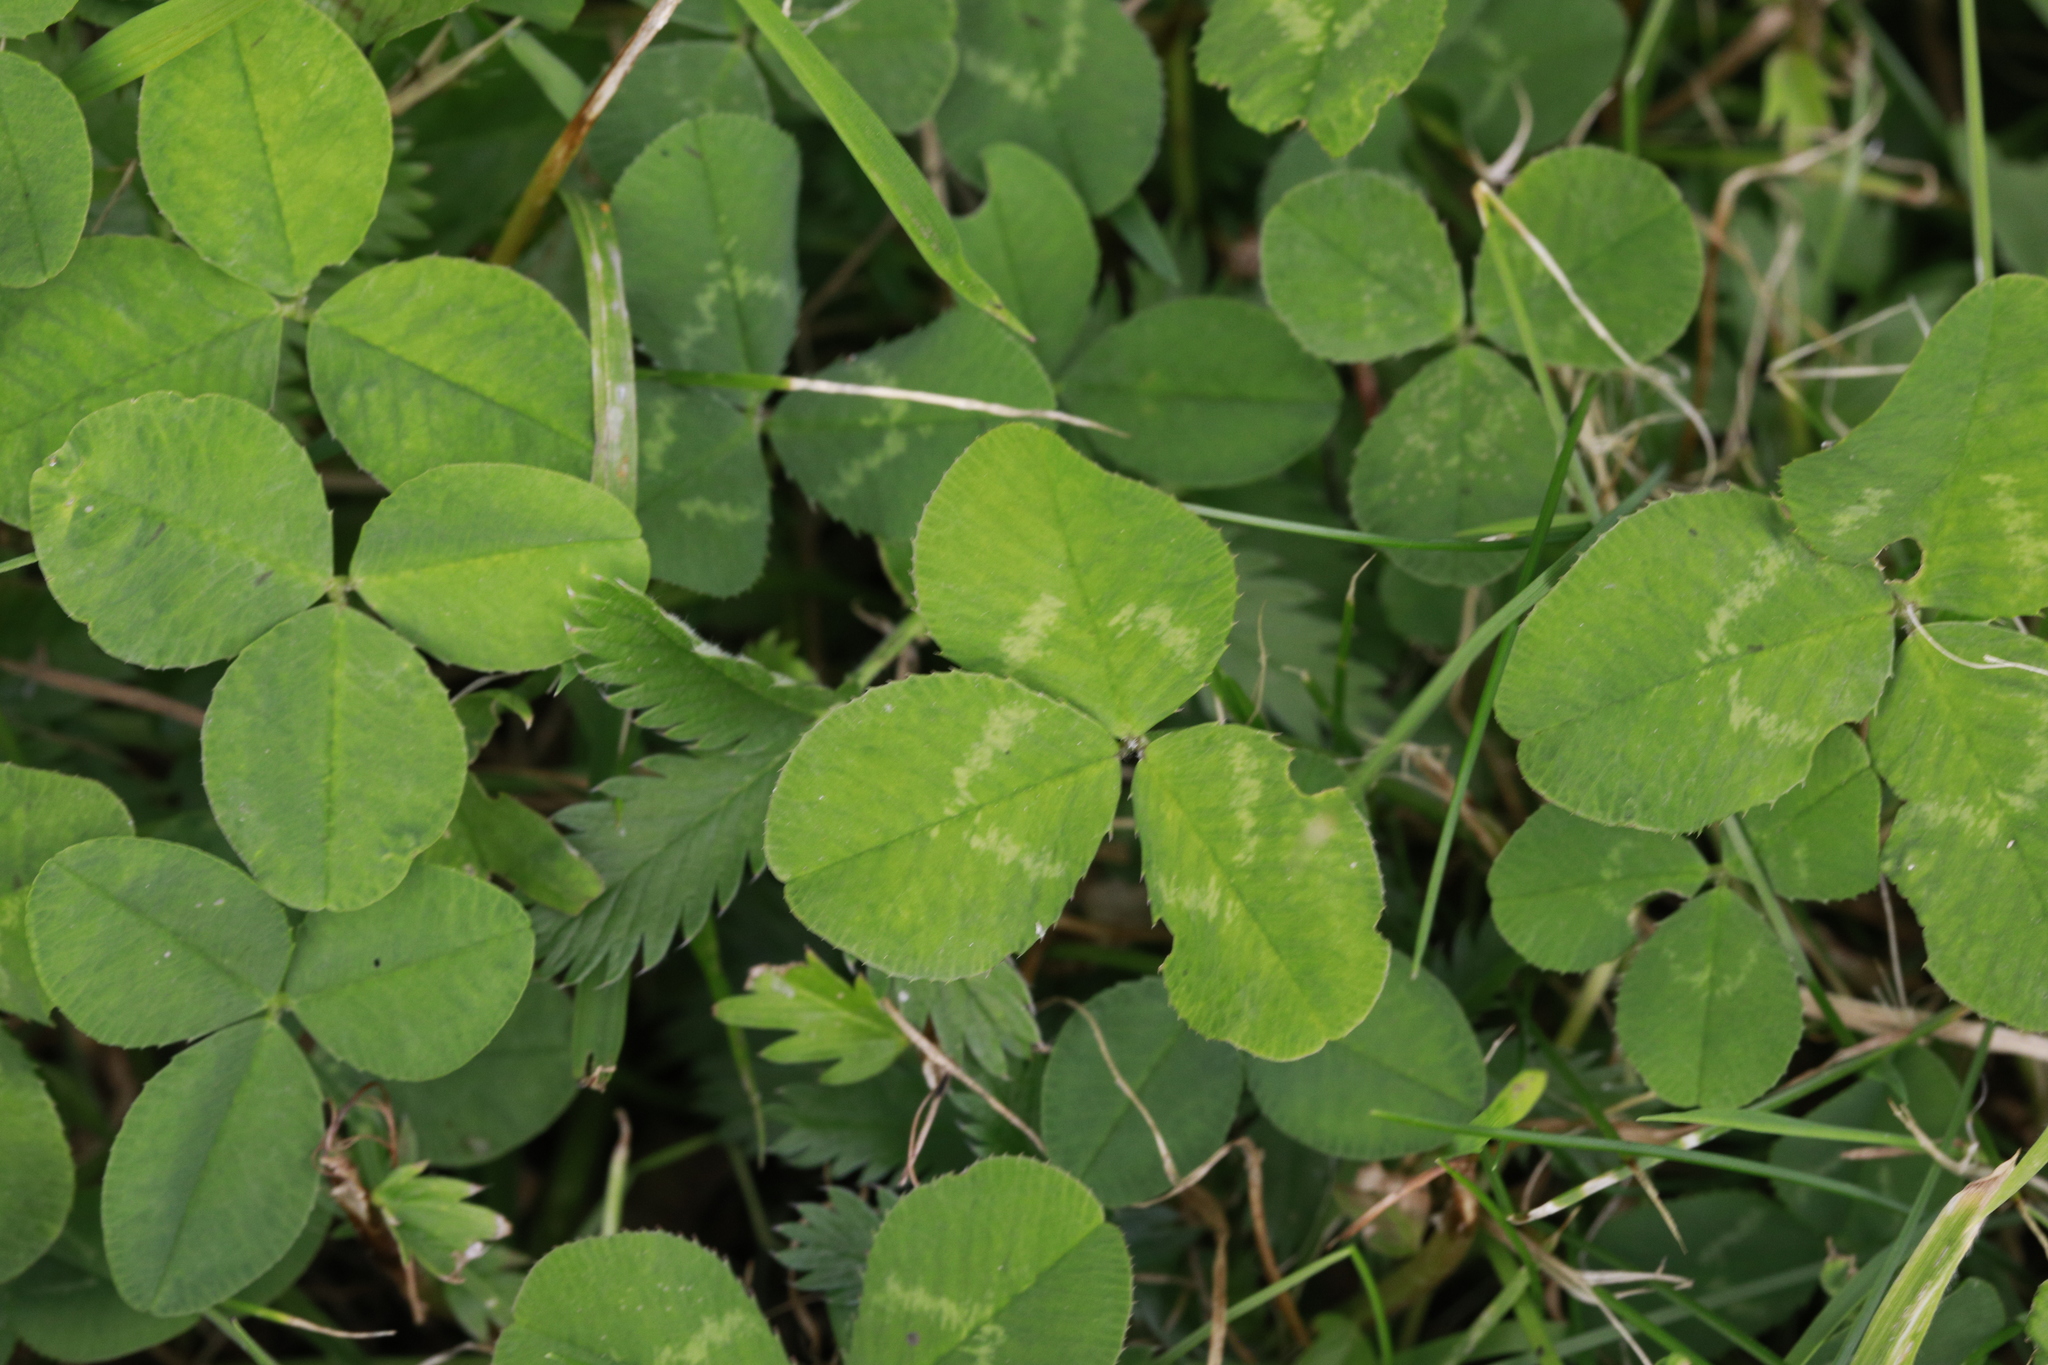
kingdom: Plantae
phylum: Tracheophyta
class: Magnoliopsida
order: Fabales
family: Fabaceae
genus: Trifolium
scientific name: Trifolium repens
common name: White clover
